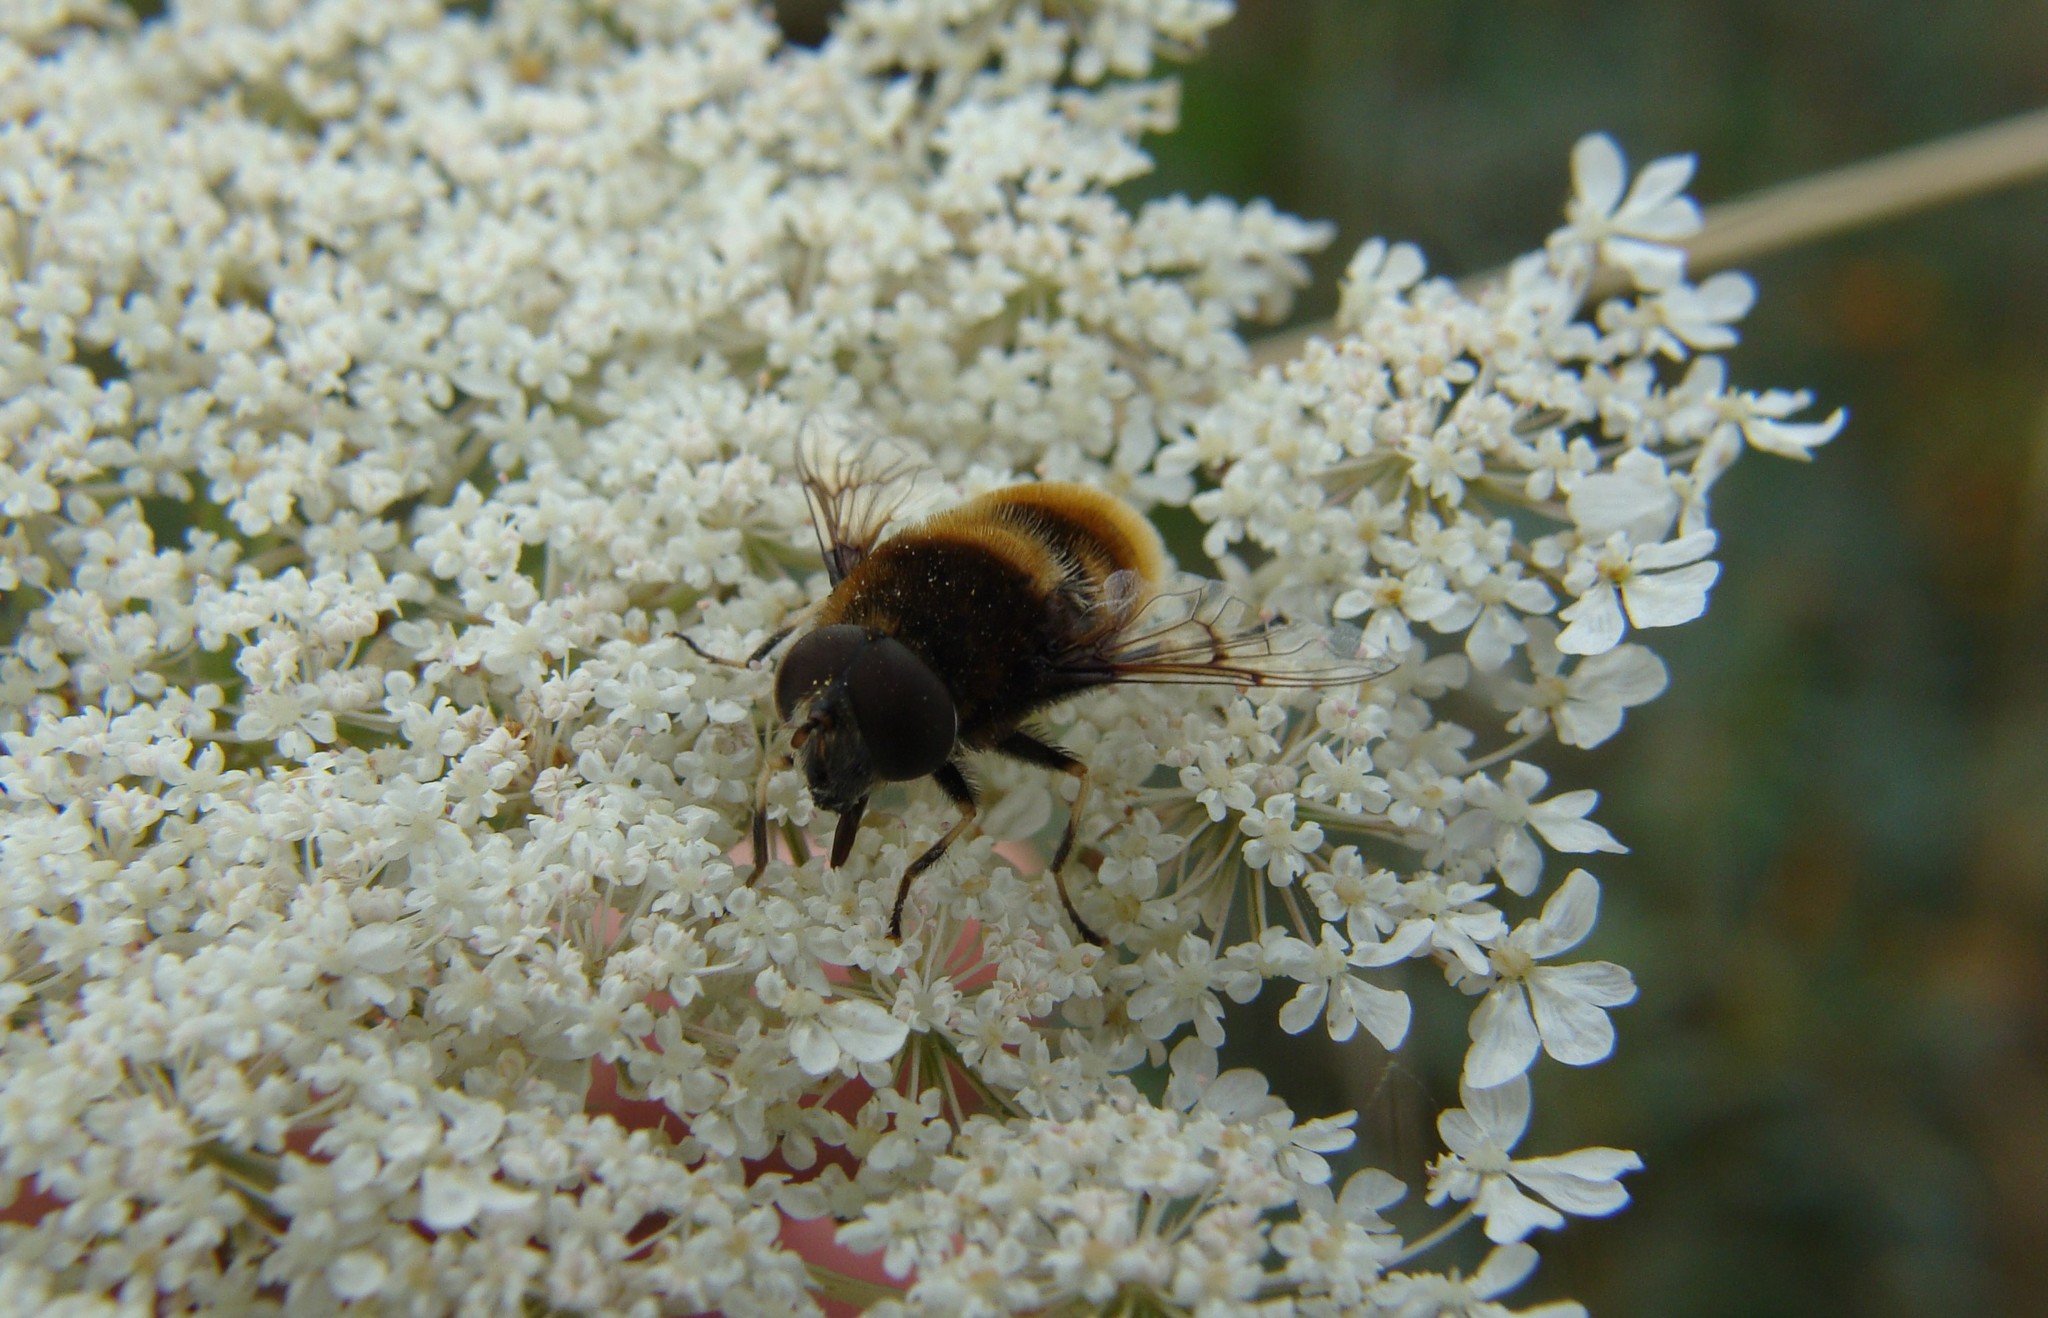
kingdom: Animalia
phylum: Arthropoda
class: Insecta
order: Diptera
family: Syrphidae
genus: Eristalis
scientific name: Eristalis intricaria
